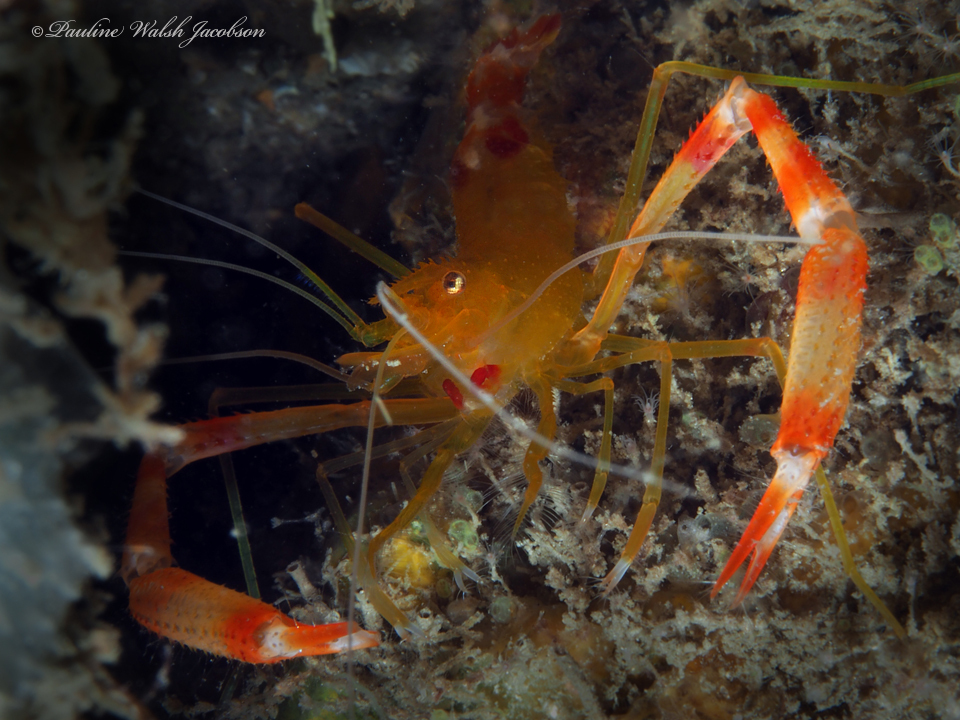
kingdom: Animalia
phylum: Arthropoda
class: Malacostraca
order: Decapoda
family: Stenopodidae
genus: Stenopus
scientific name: Stenopus scutellatus
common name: Golden coral shrimp
